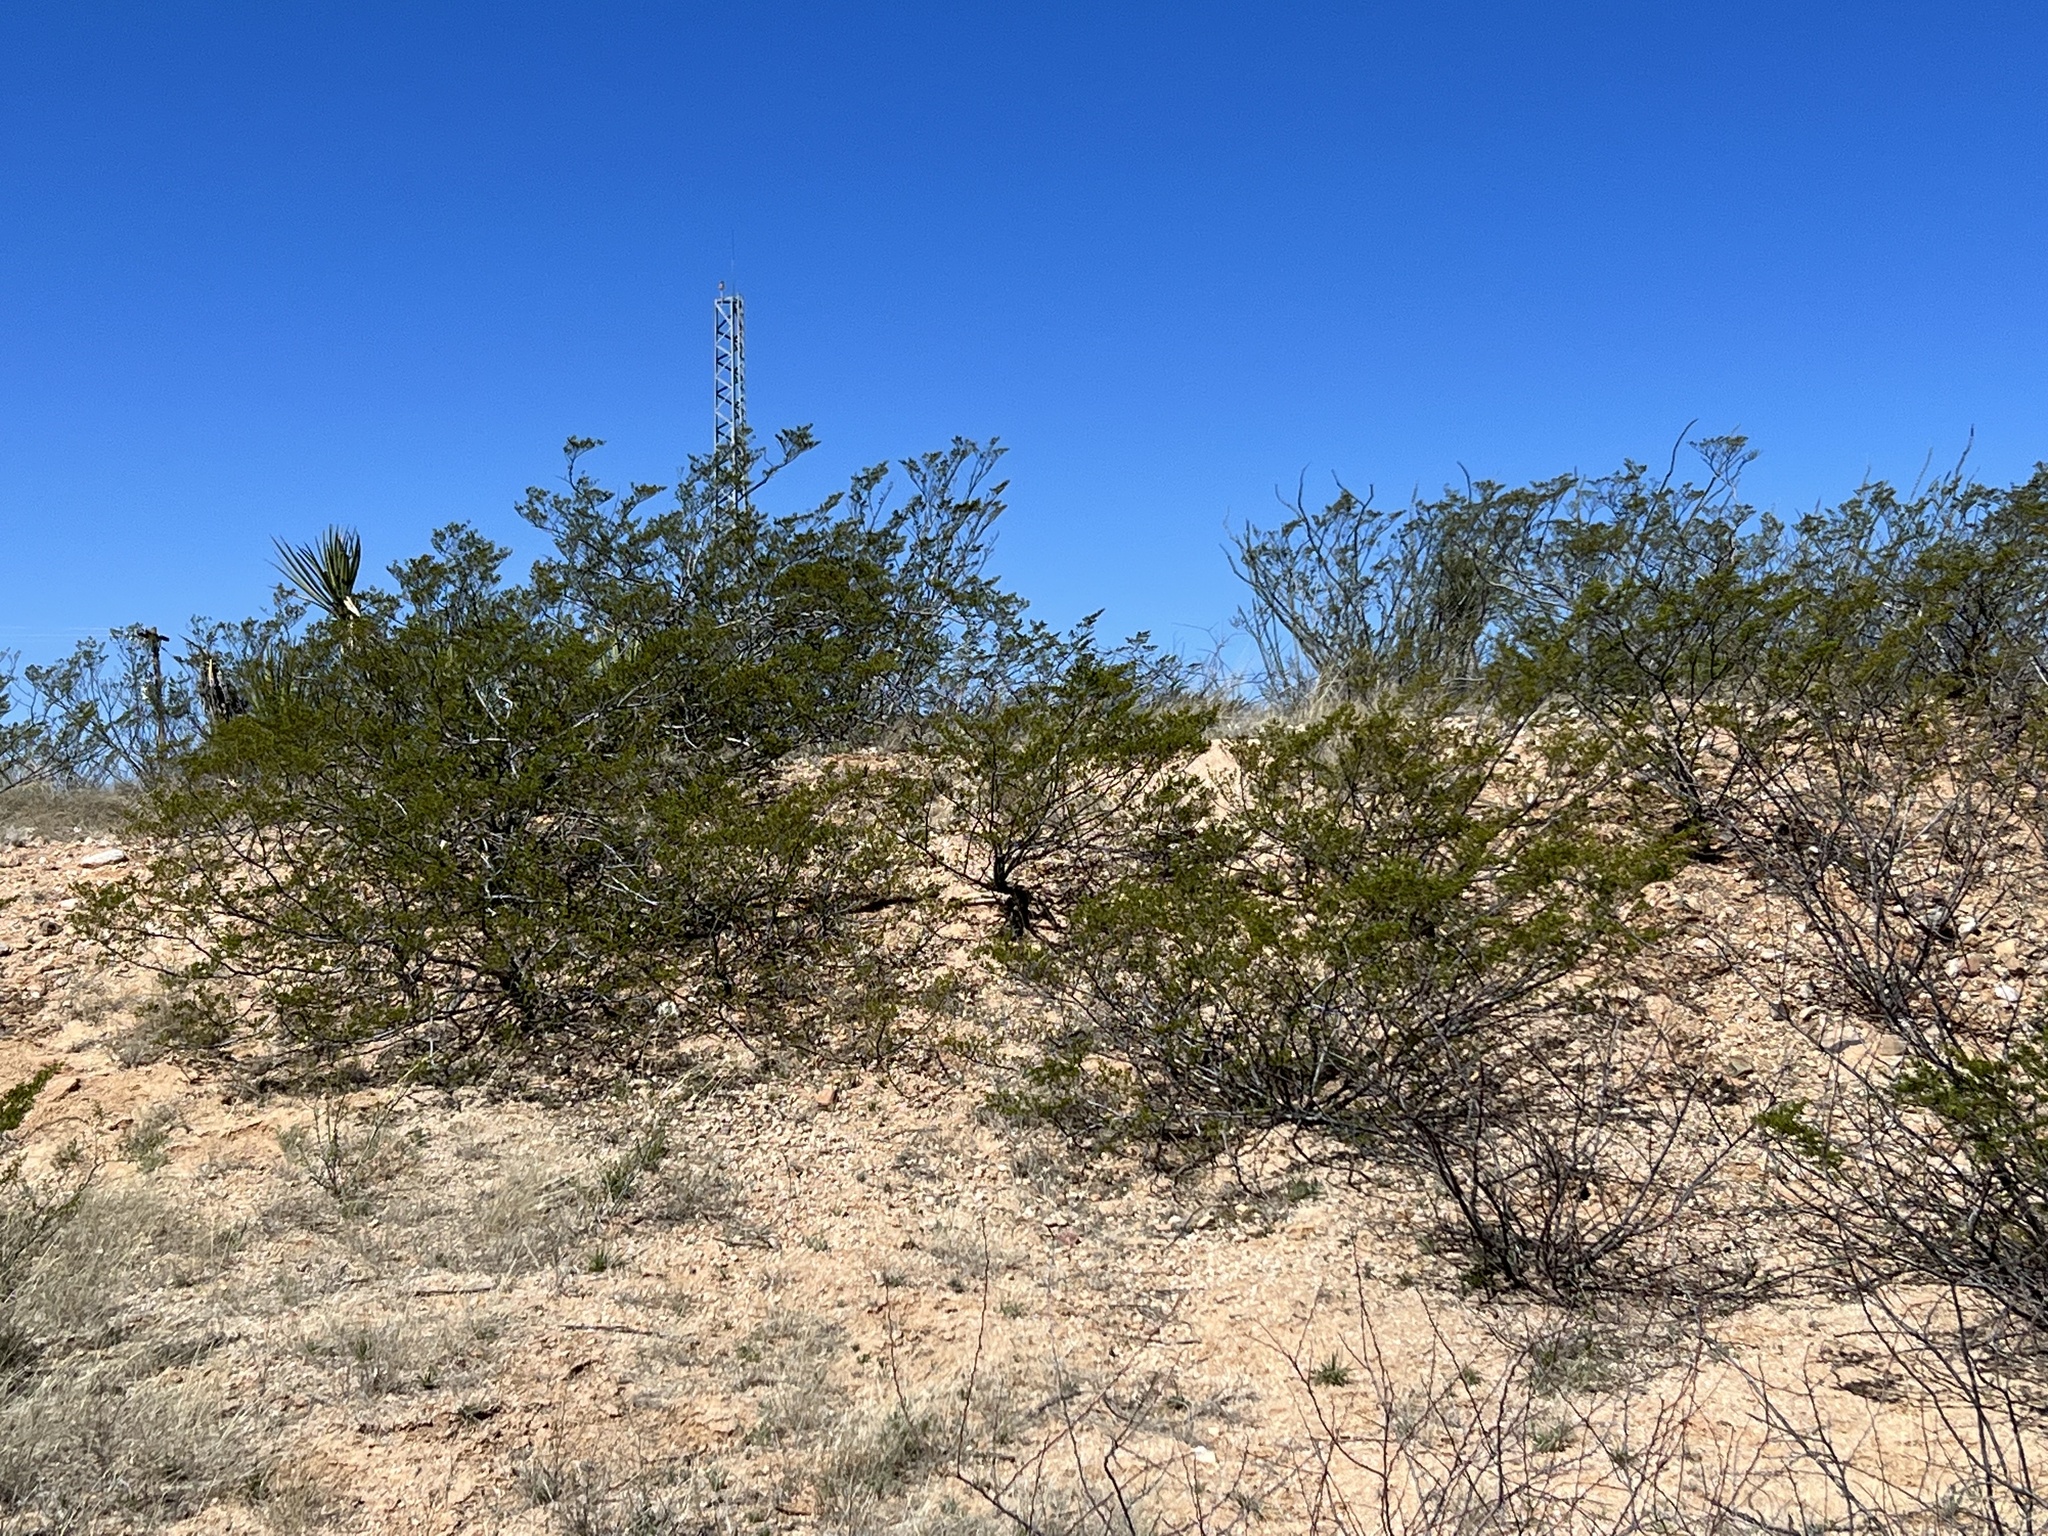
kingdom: Plantae
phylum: Tracheophyta
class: Magnoliopsida
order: Zygophyllales
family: Zygophyllaceae
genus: Larrea
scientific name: Larrea tridentata
